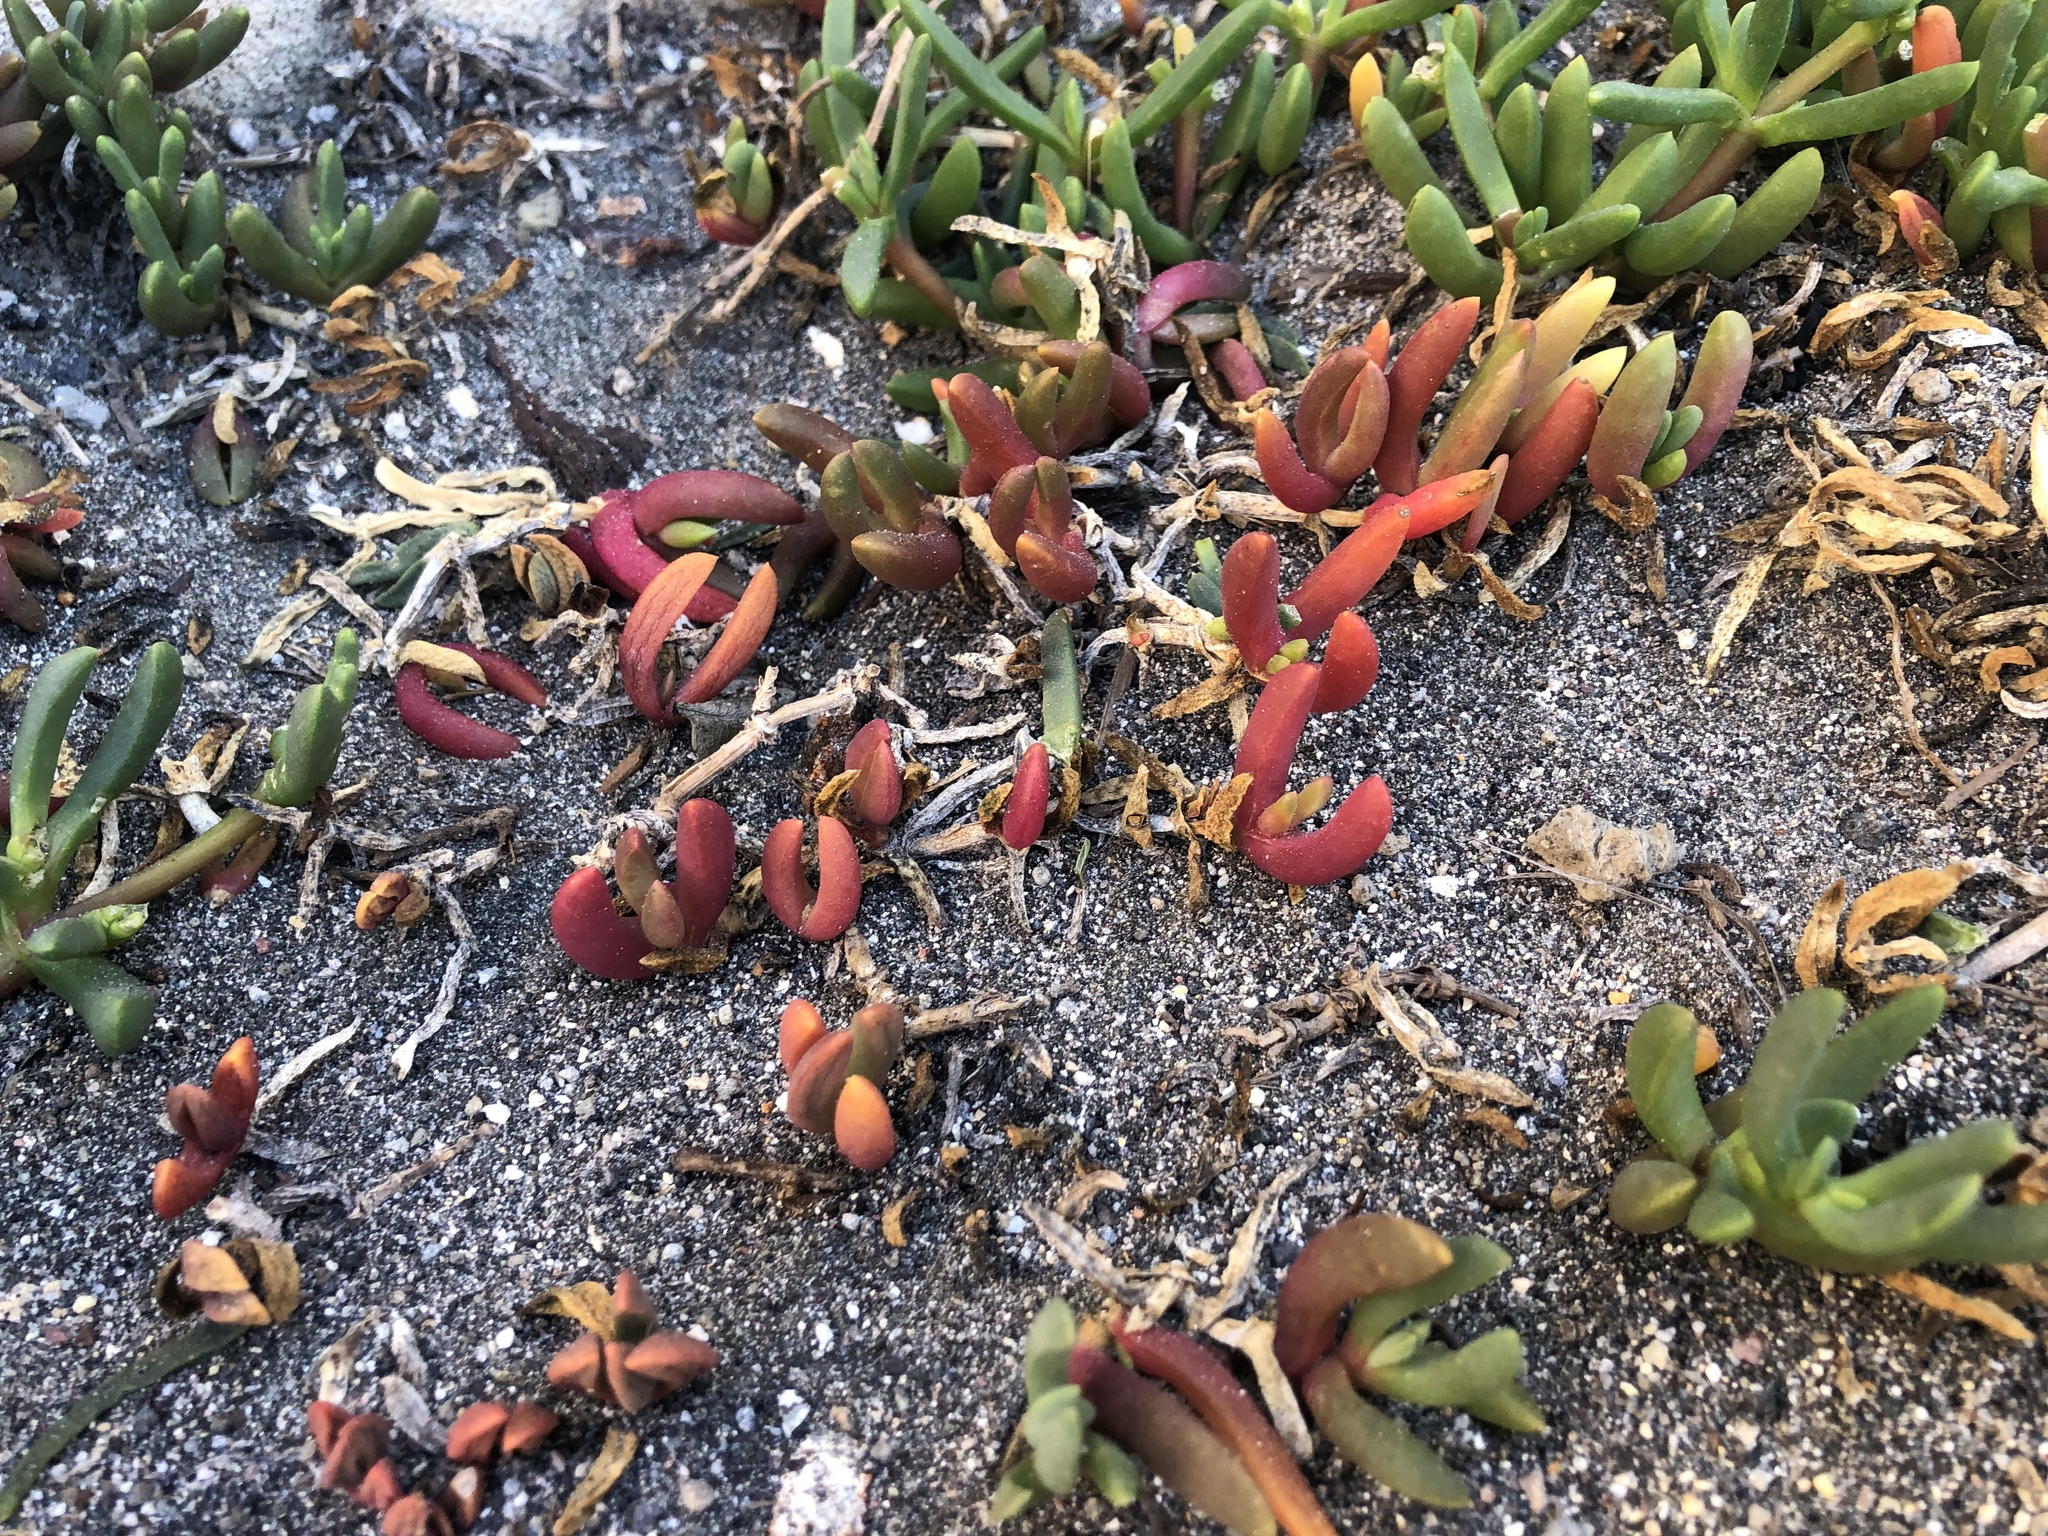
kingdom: Plantae
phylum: Tracheophyta
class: Magnoliopsida
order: Caryophyllales
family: Aizoaceae
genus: Disphyma
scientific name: Disphyma australe
